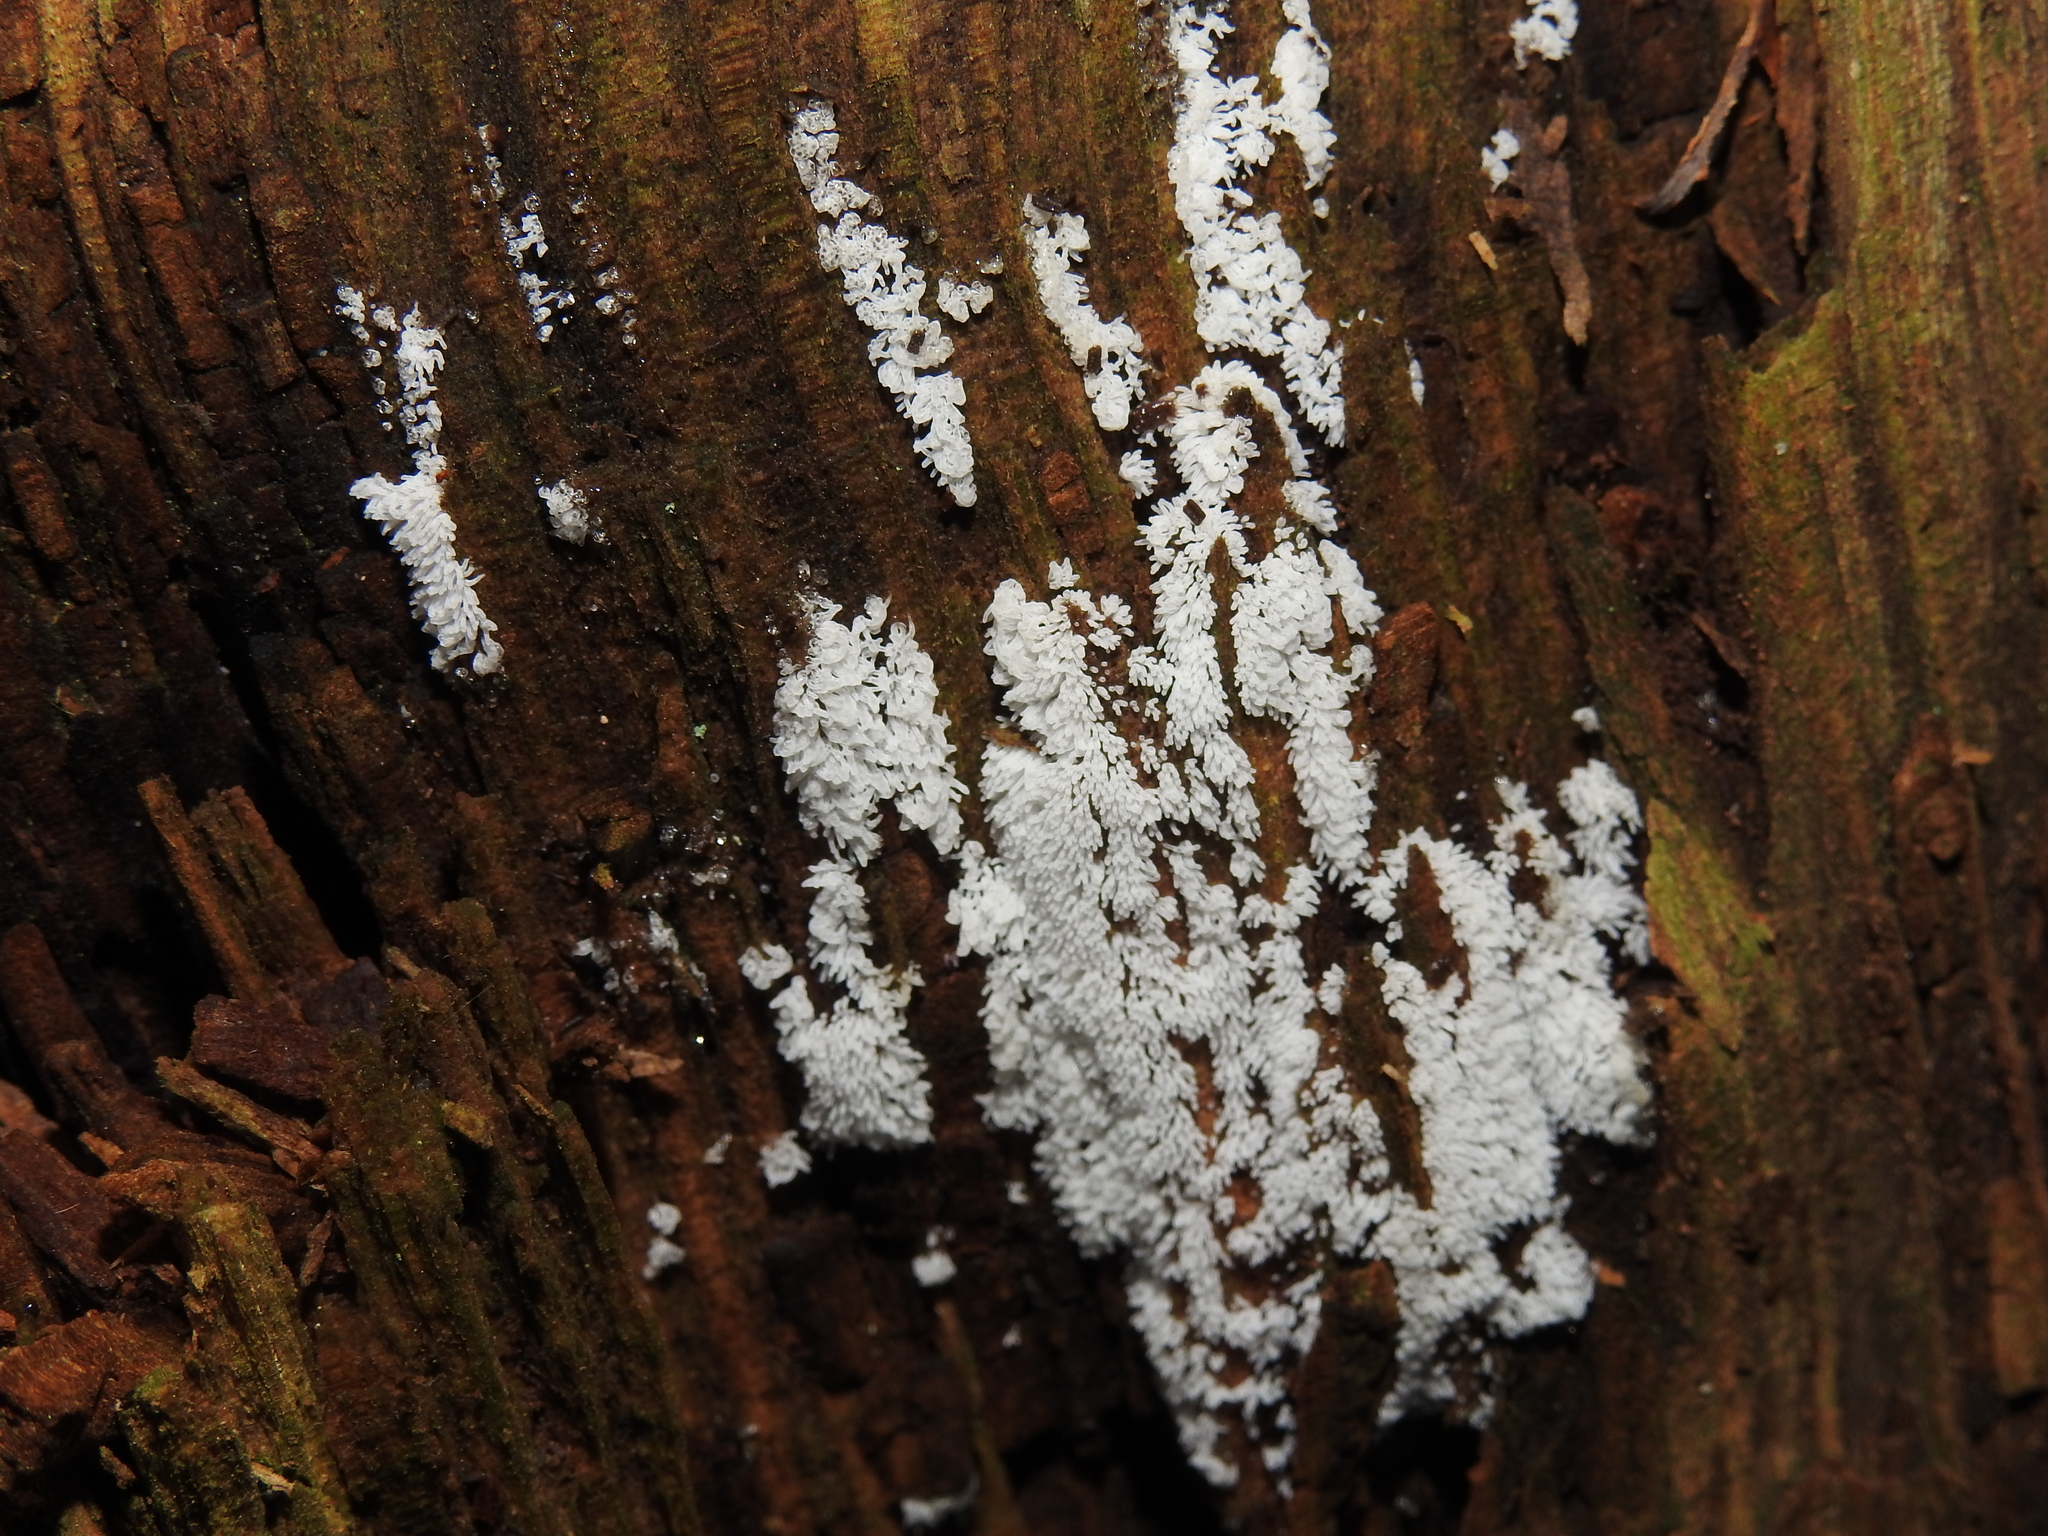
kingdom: Protozoa
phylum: Mycetozoa
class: Protosteliomycetes
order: Ceratiomyxales
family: Ceratiomyxaceae
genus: Ceratiomyxa
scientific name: Ceratiomyxa fruticulosa
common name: Honeycomb coral slime mold
